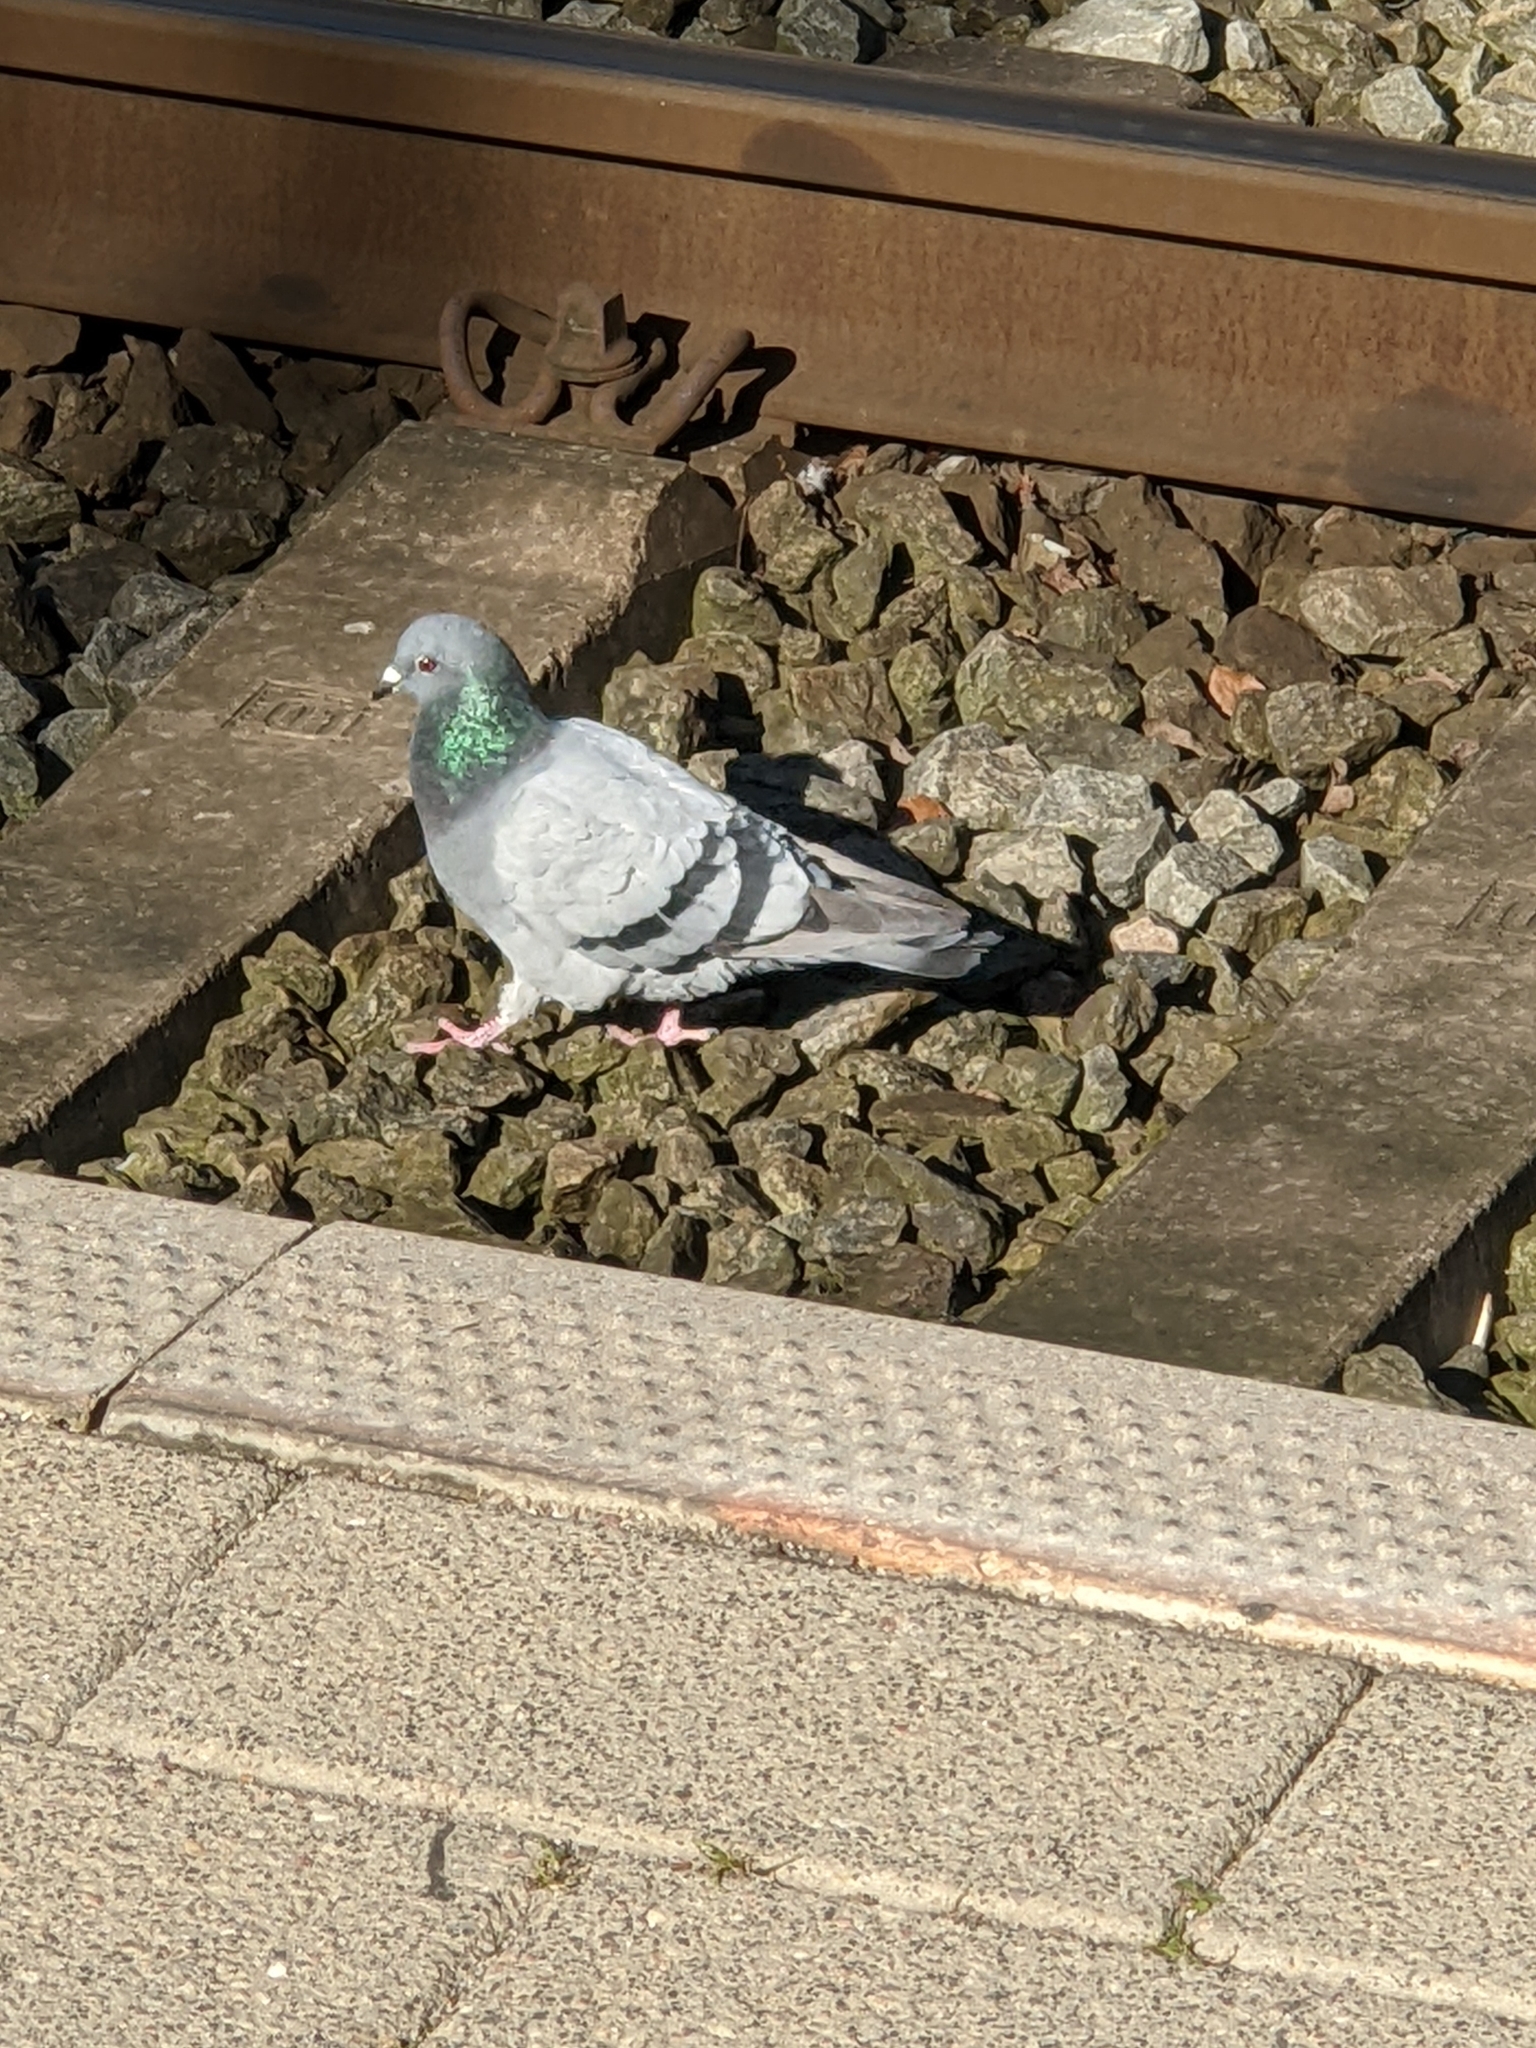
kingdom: Animalia
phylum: Chordata
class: Aves
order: Columbiformes
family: Columbidae
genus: Columba
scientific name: Columba livia
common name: Rock pigeon
